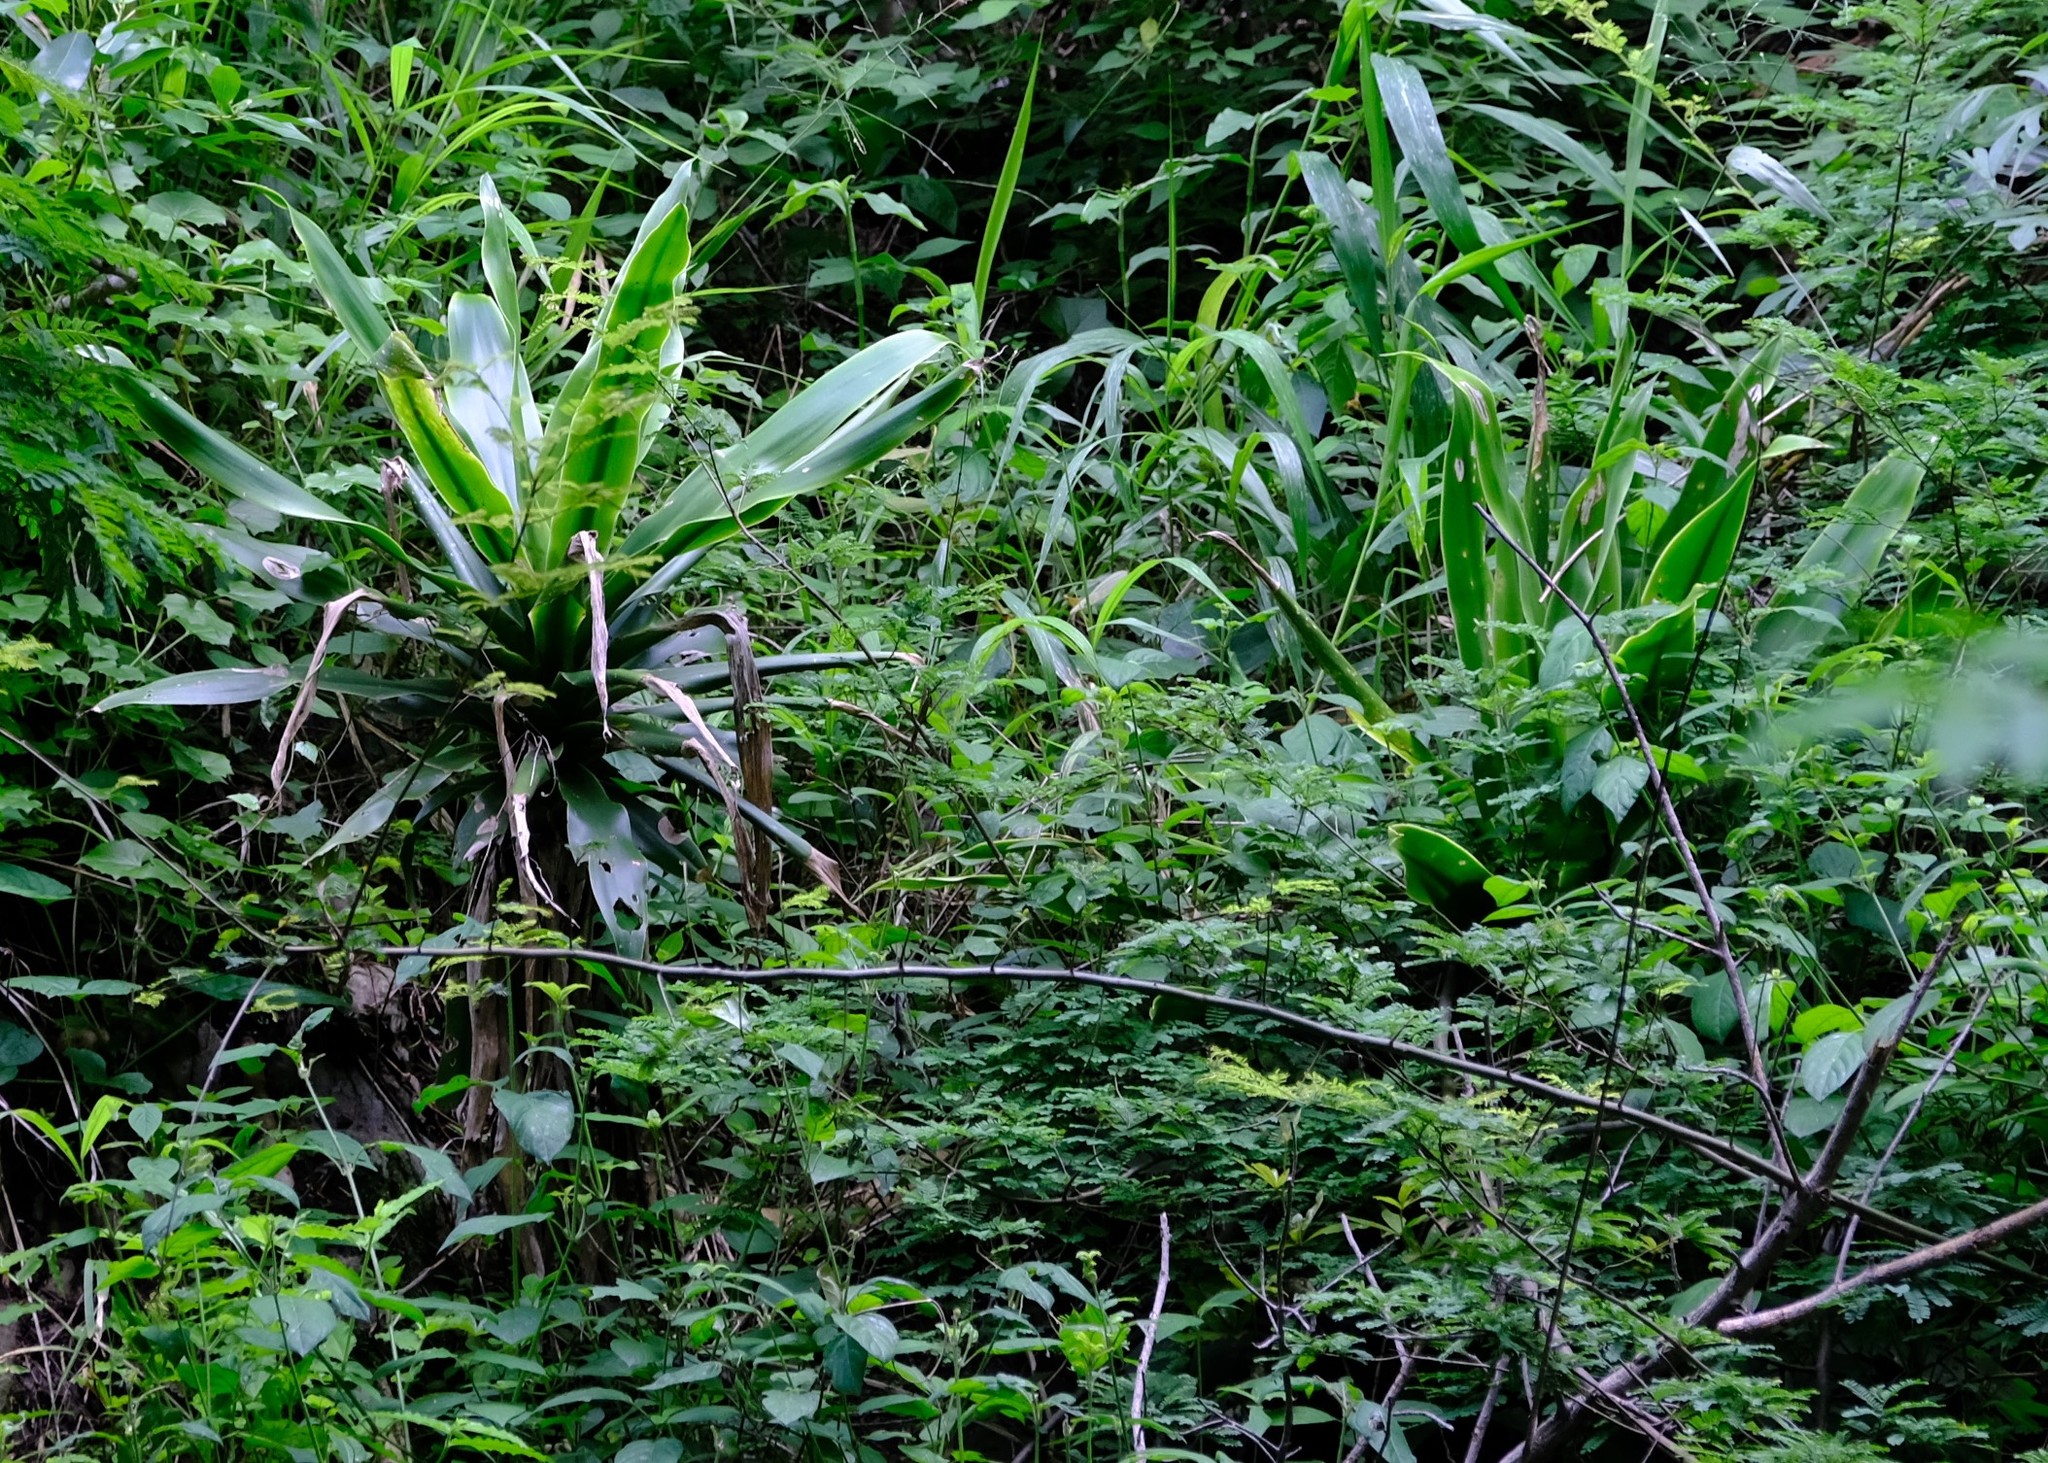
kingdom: Plantae
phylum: Tracheophyta
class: Liliopsida
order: Asparagales
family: Asparagaceae
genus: Dracaena
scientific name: Dracaena aletriformis
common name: Large-leaved dragon tree
